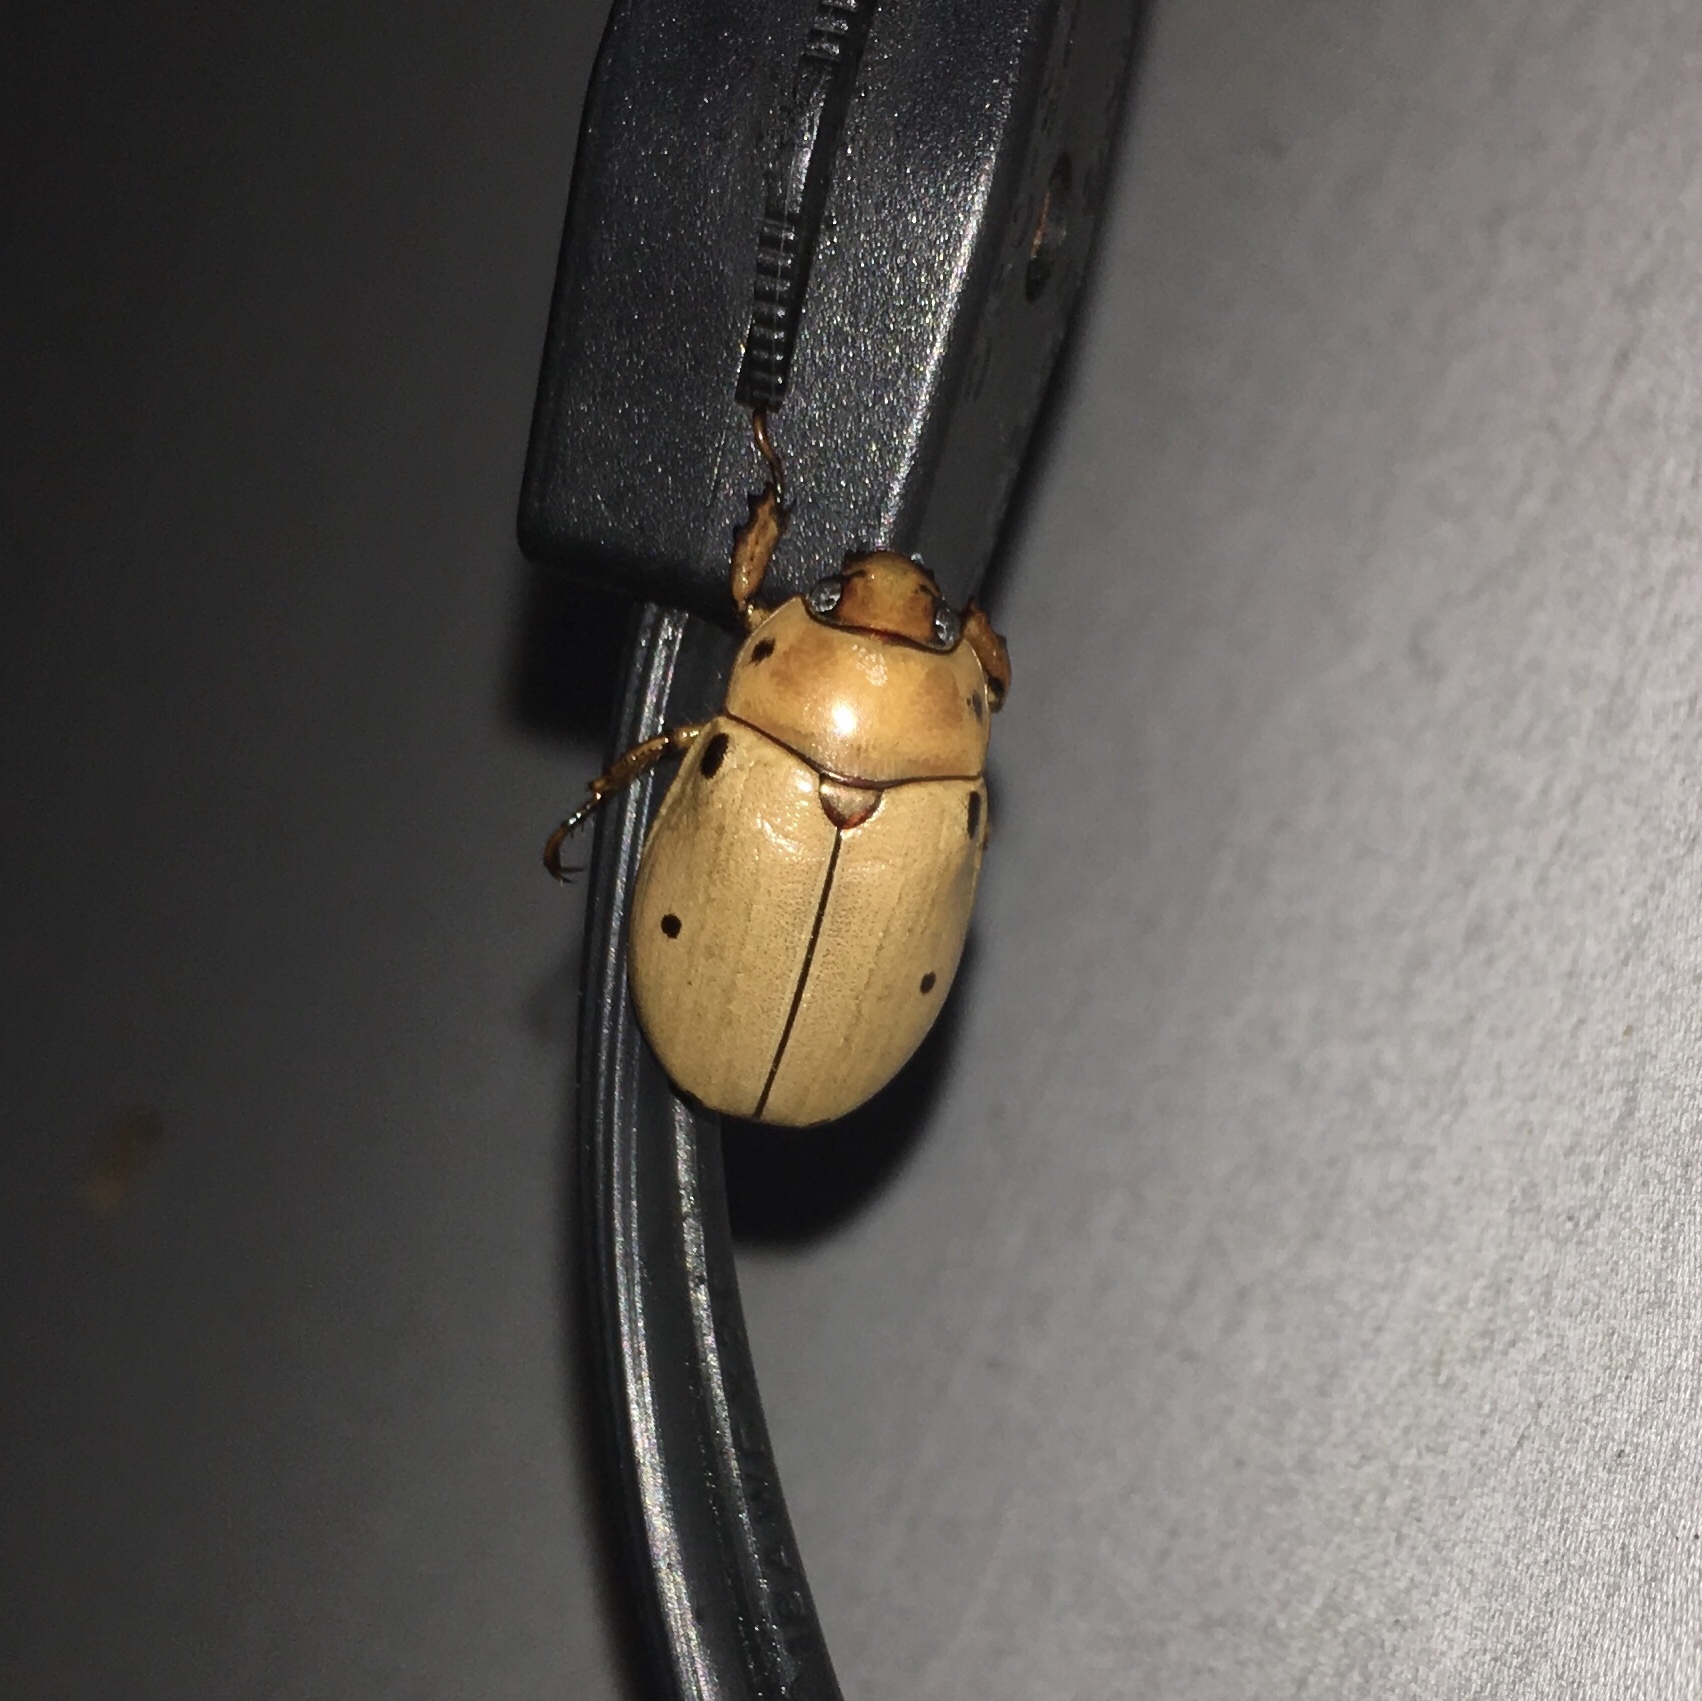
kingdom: Animalia
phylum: Arthropoda
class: Insecta
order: Coleoptera
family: Scarabaeidae
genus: Pelidnota
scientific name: Pelidnota punctata
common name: Grapevine beetle
